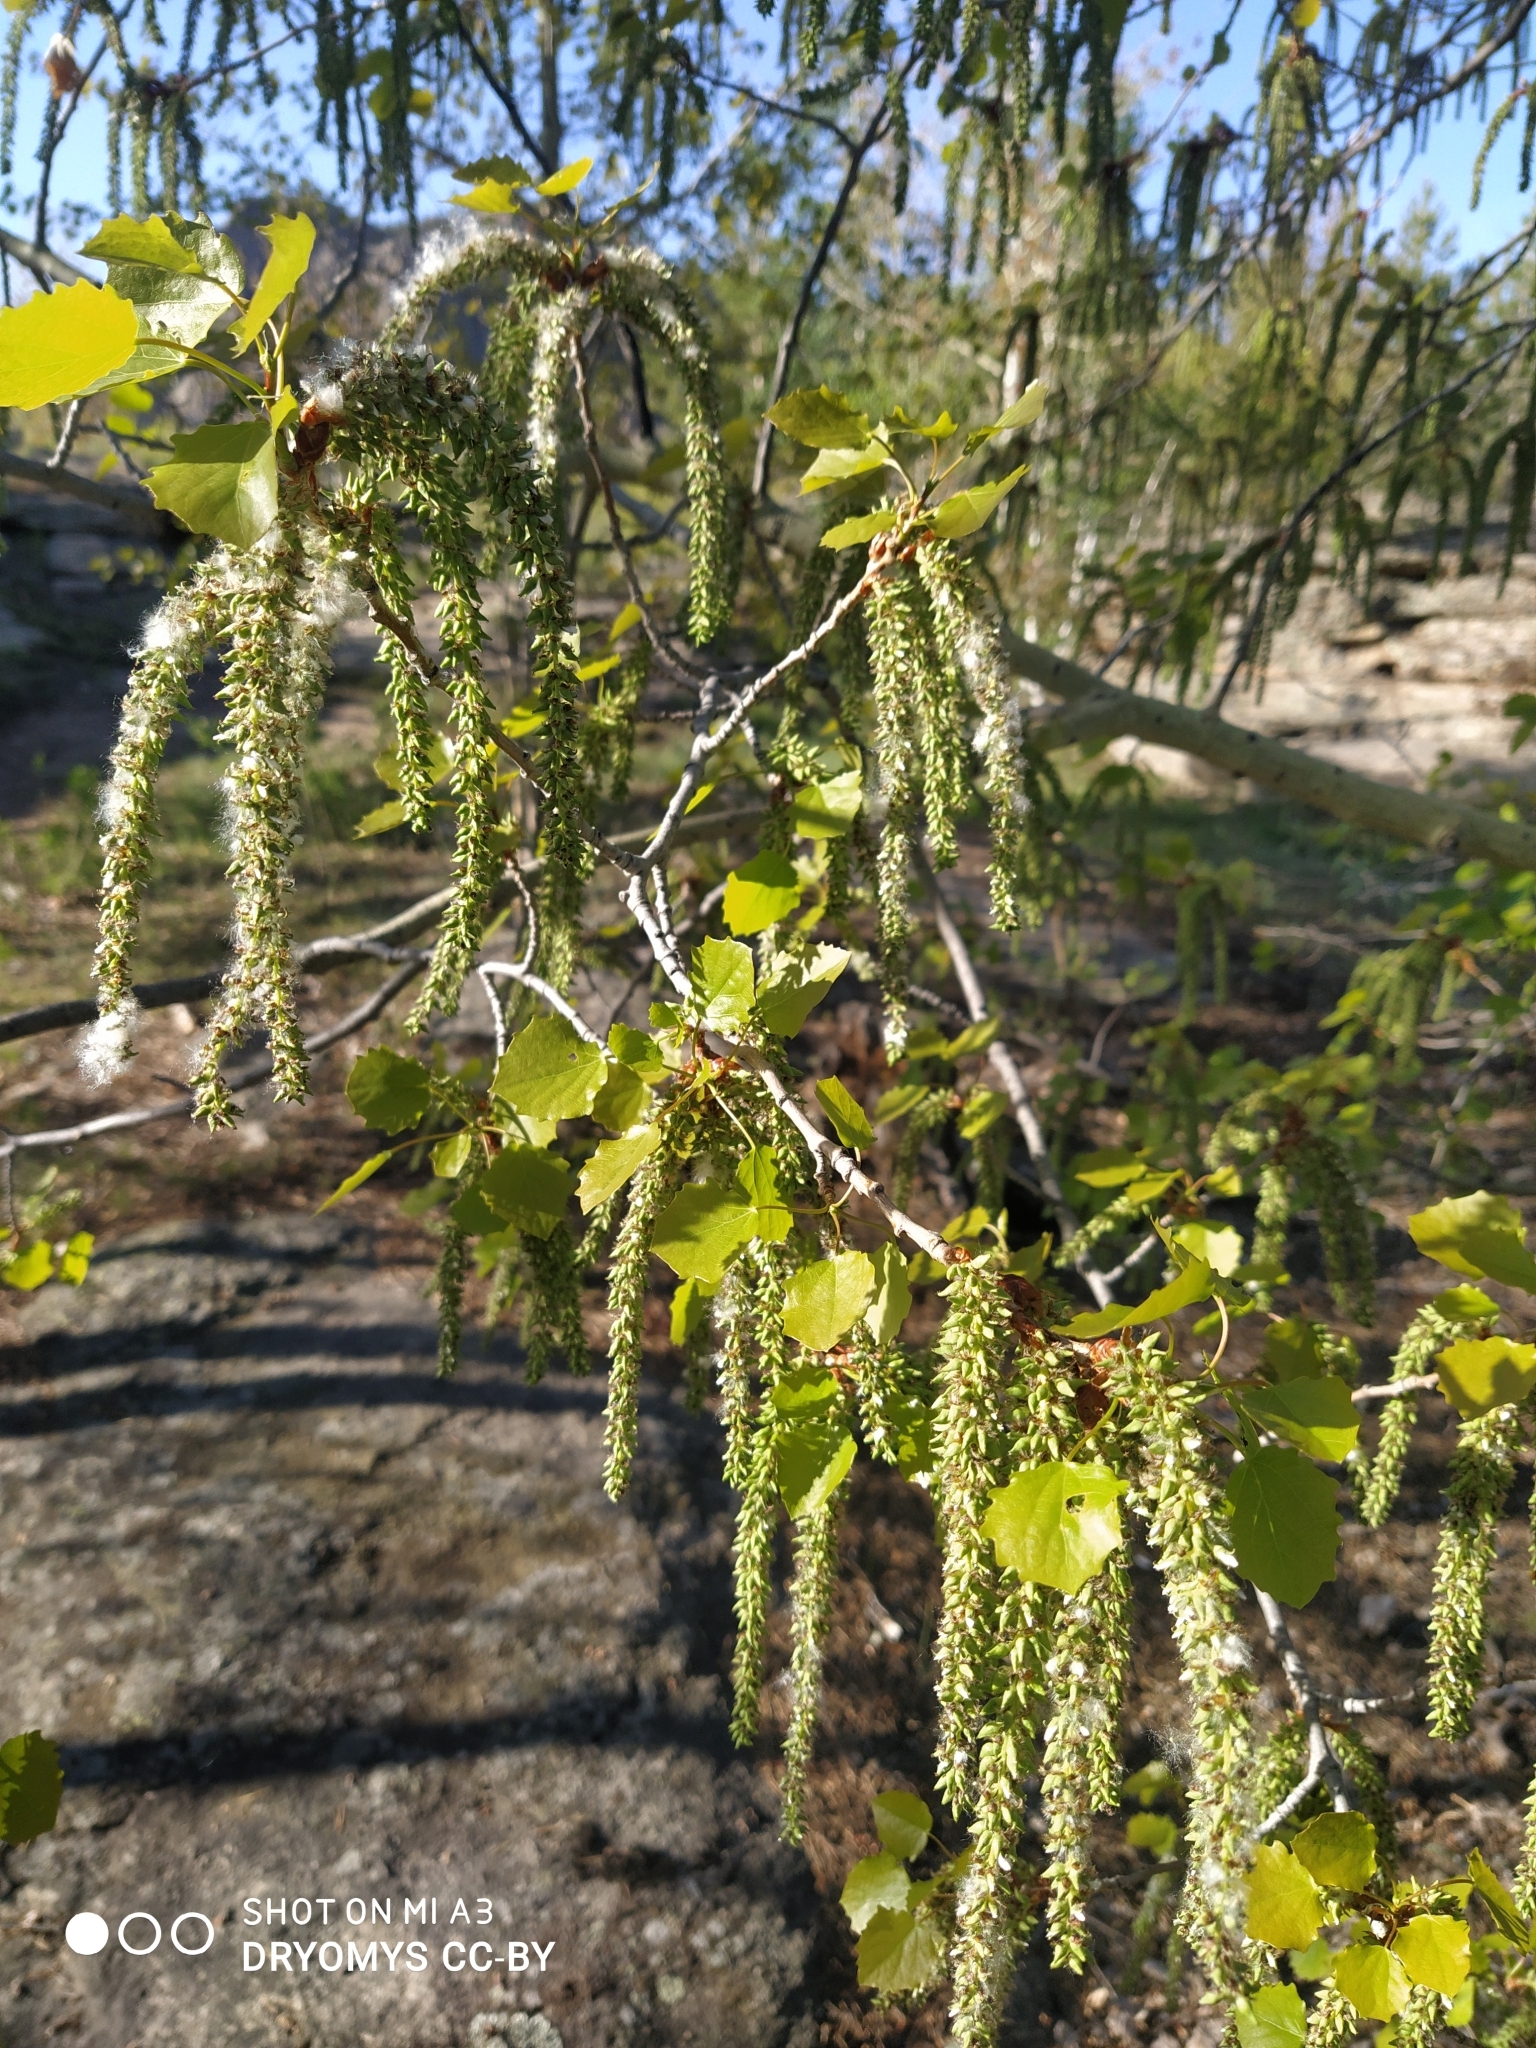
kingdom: Plantae
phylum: Tracheophyta
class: Magnoliopsida
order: Malpighiales
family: Salicaceae
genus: Populus
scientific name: Populus tremula
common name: European aspen
